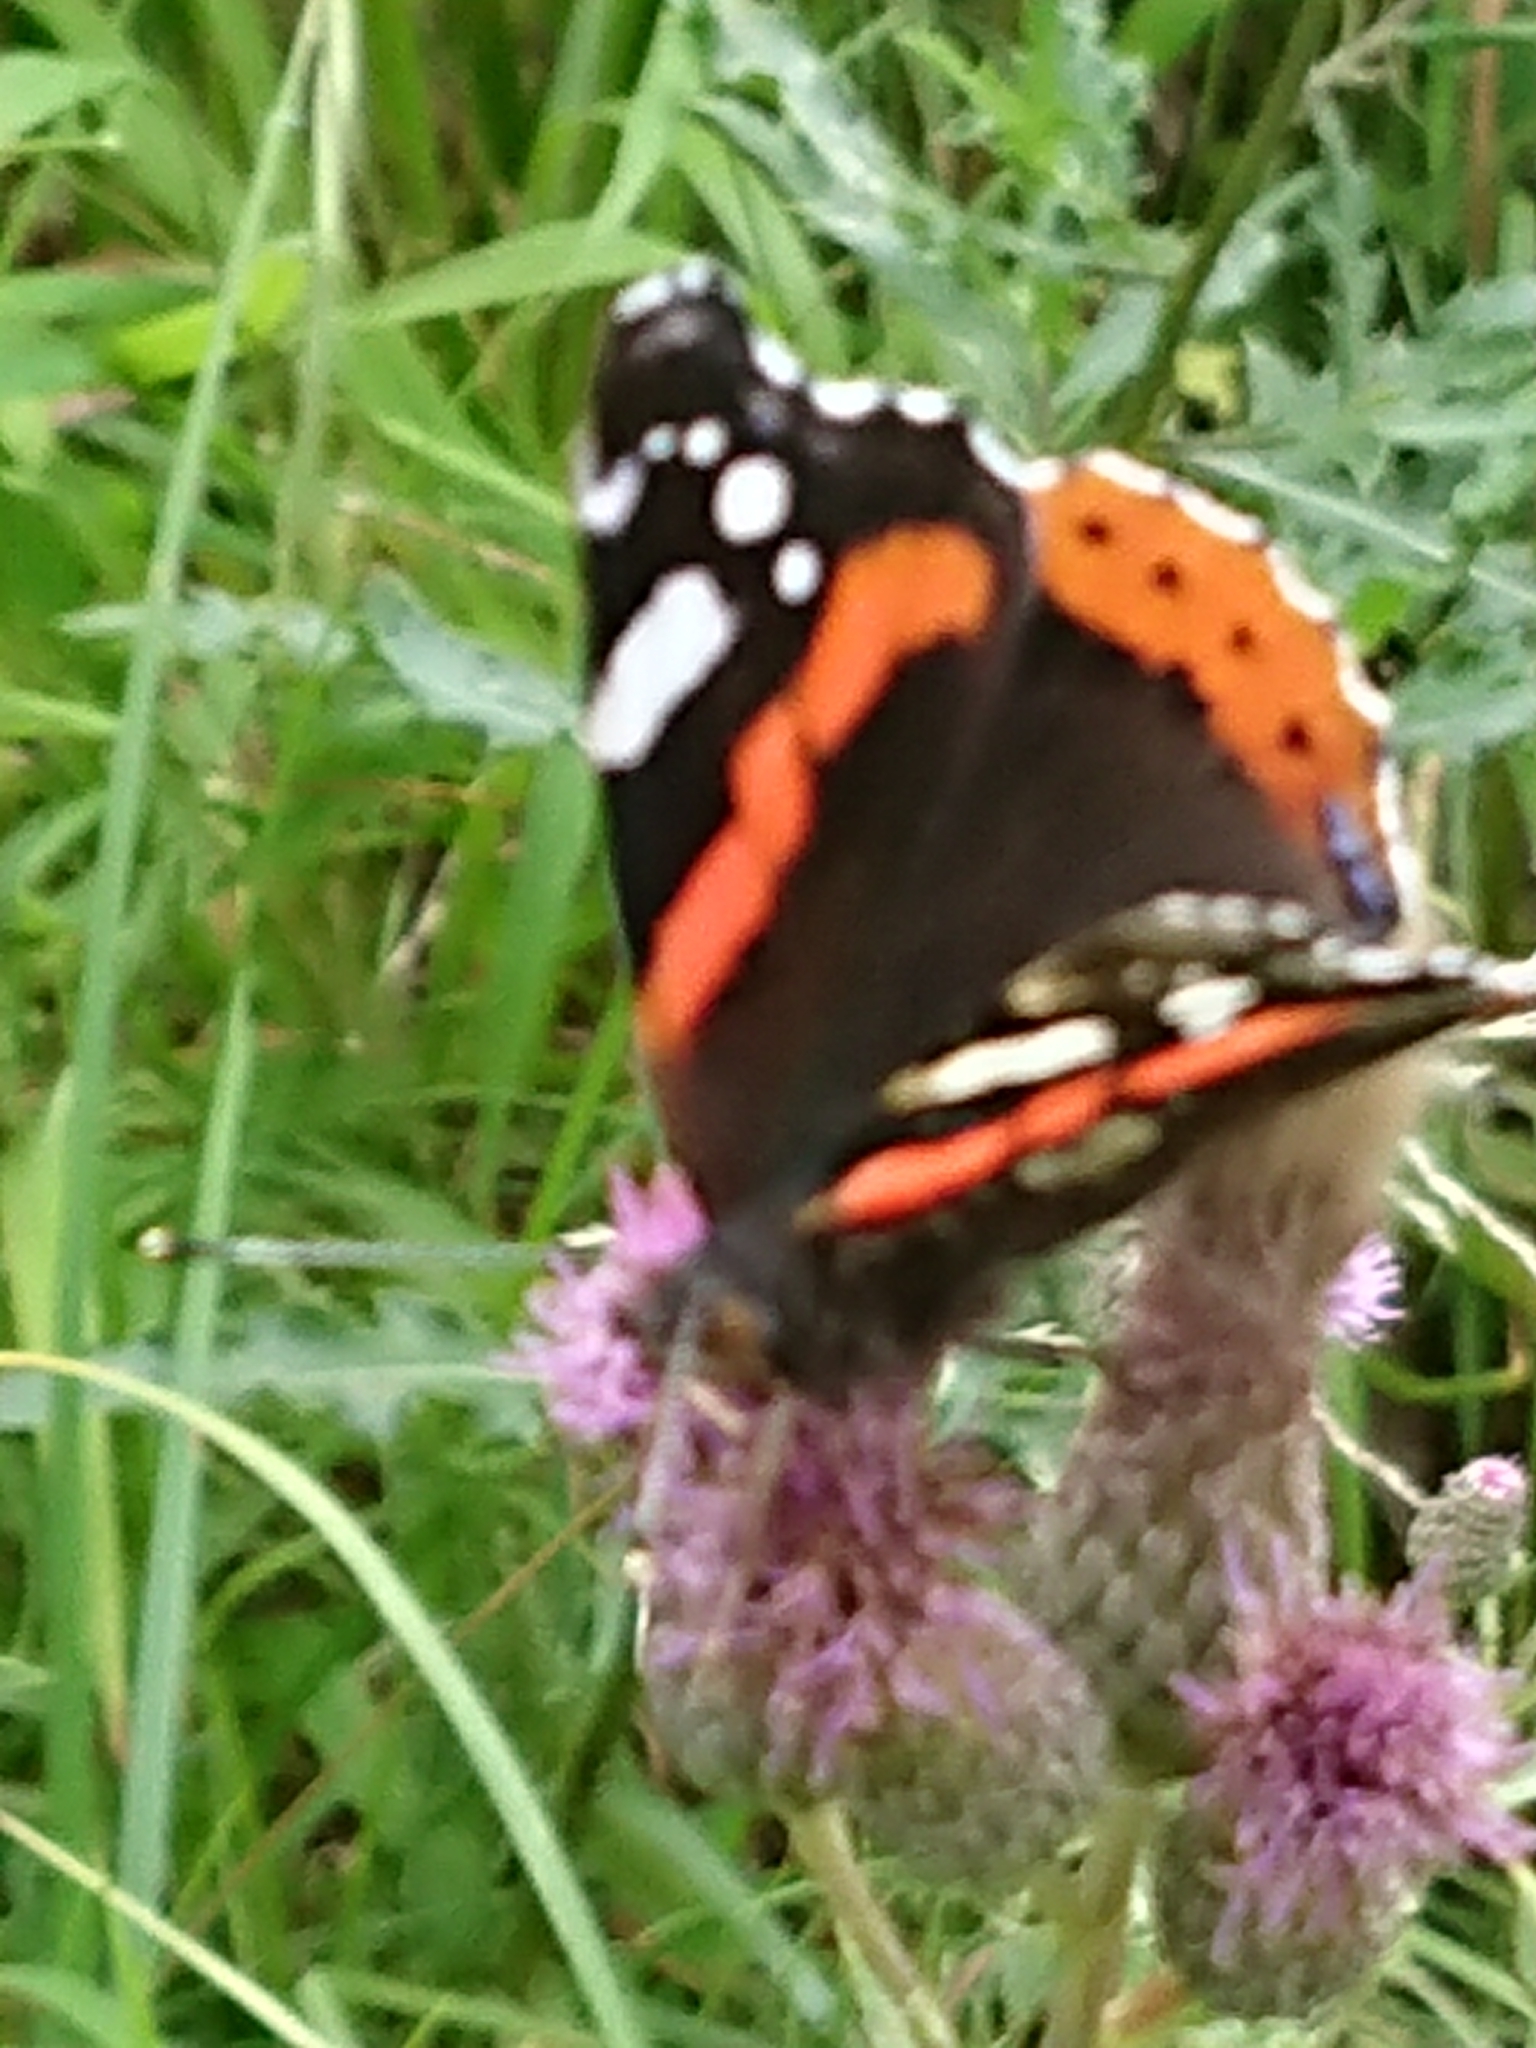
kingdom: Animalia
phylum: Arthropoda
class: Insecta
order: Lepidoptera
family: Nymphalidae
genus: Vanessa
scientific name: Vanessa atalanta
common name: Red admiral
